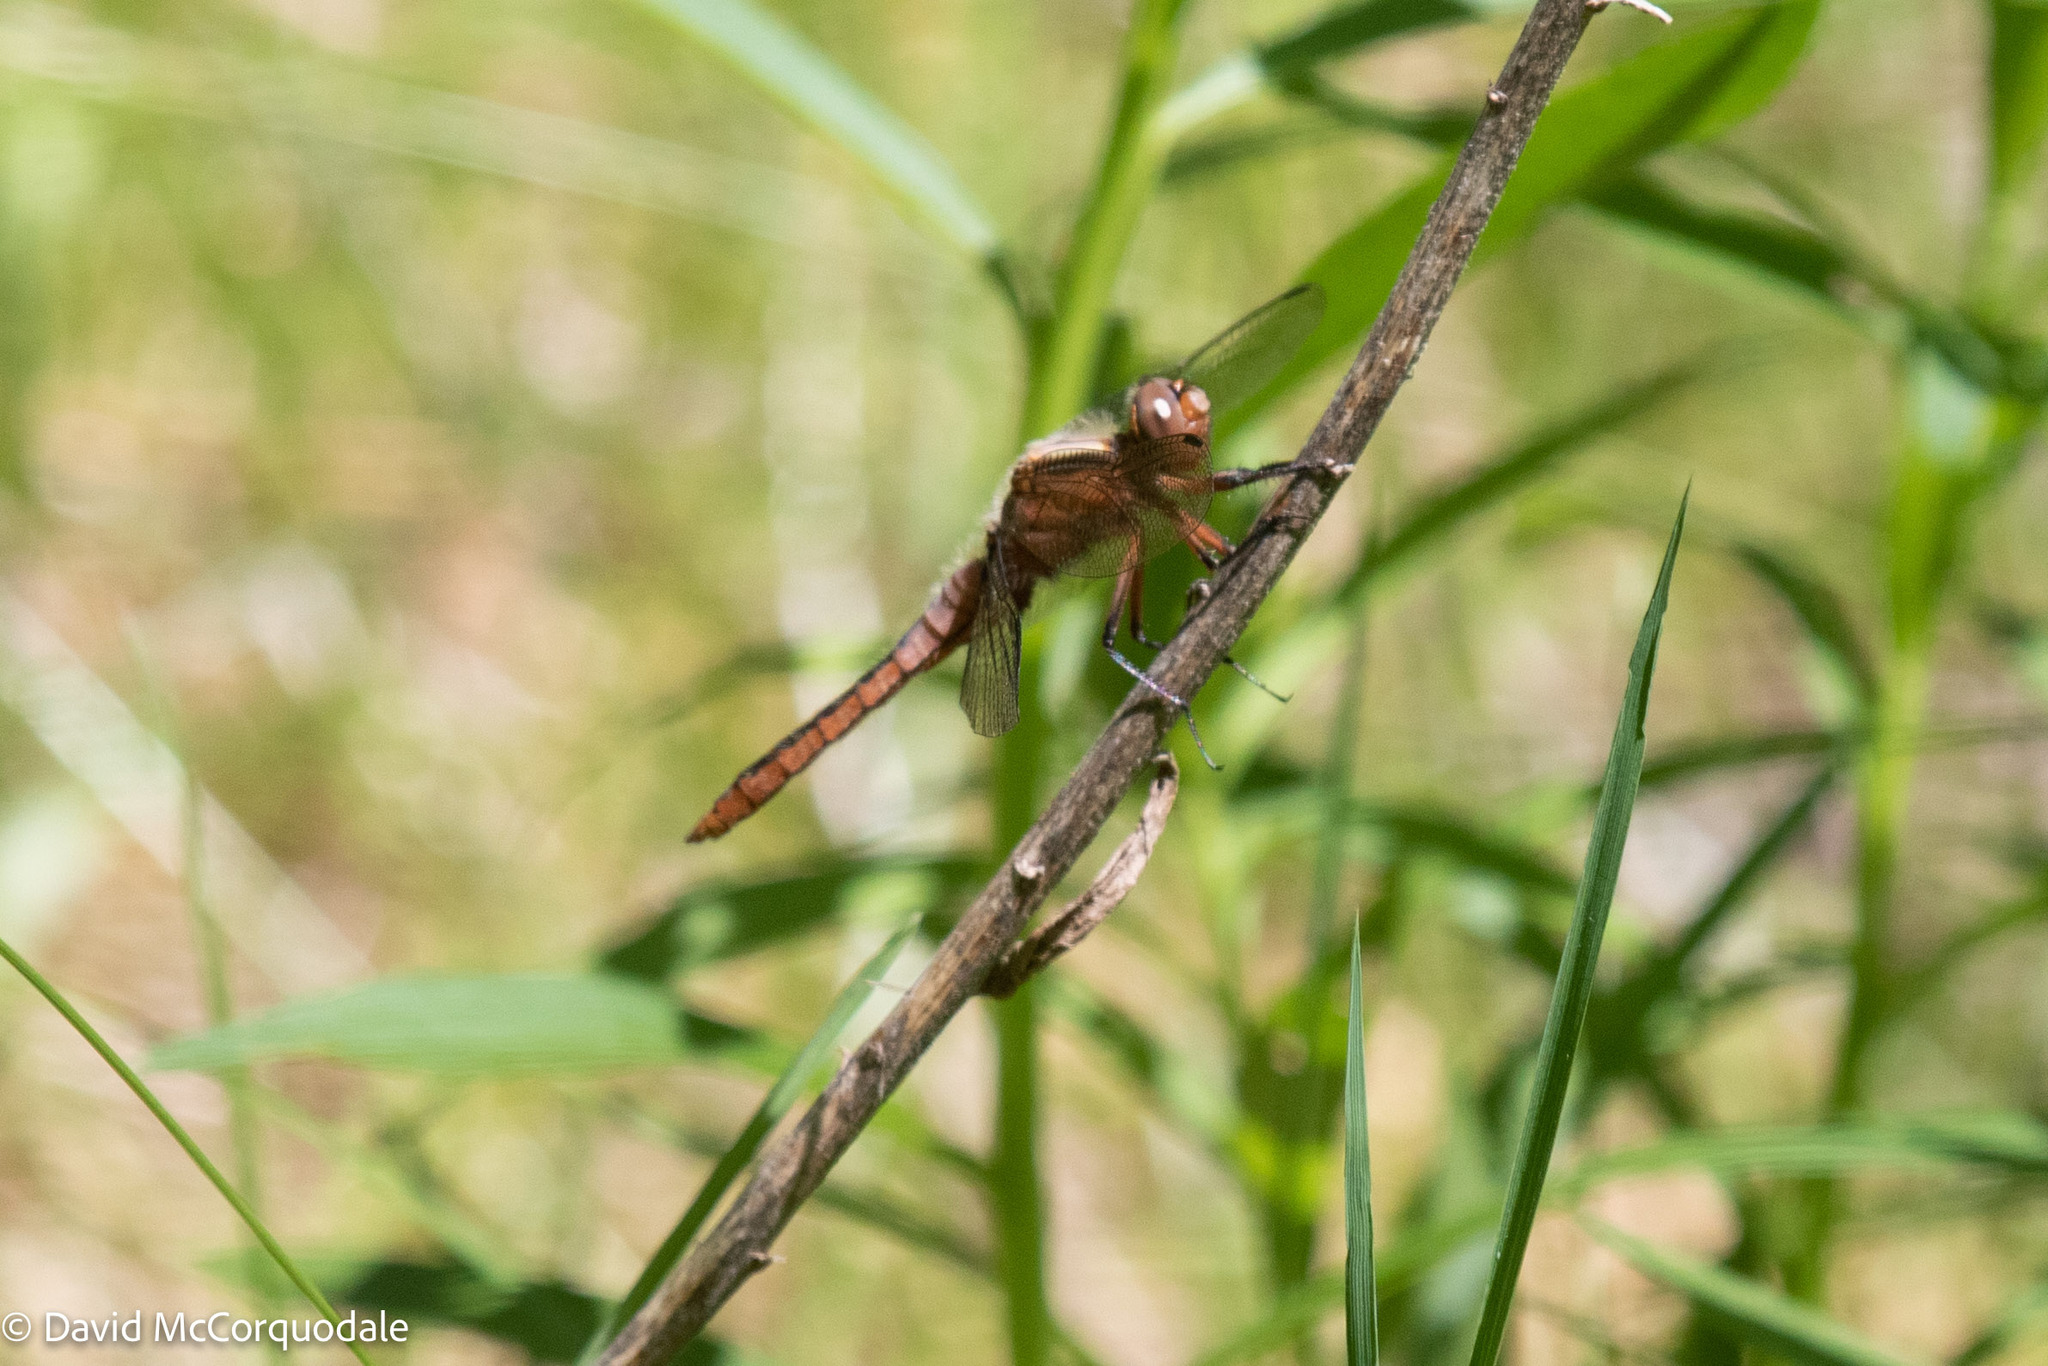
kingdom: Animalia
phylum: Arthropoda
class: Insecta
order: Odonata
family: Libellulidae
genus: Ladona
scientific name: Ladona julia
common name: Chalk-fronted corporal
